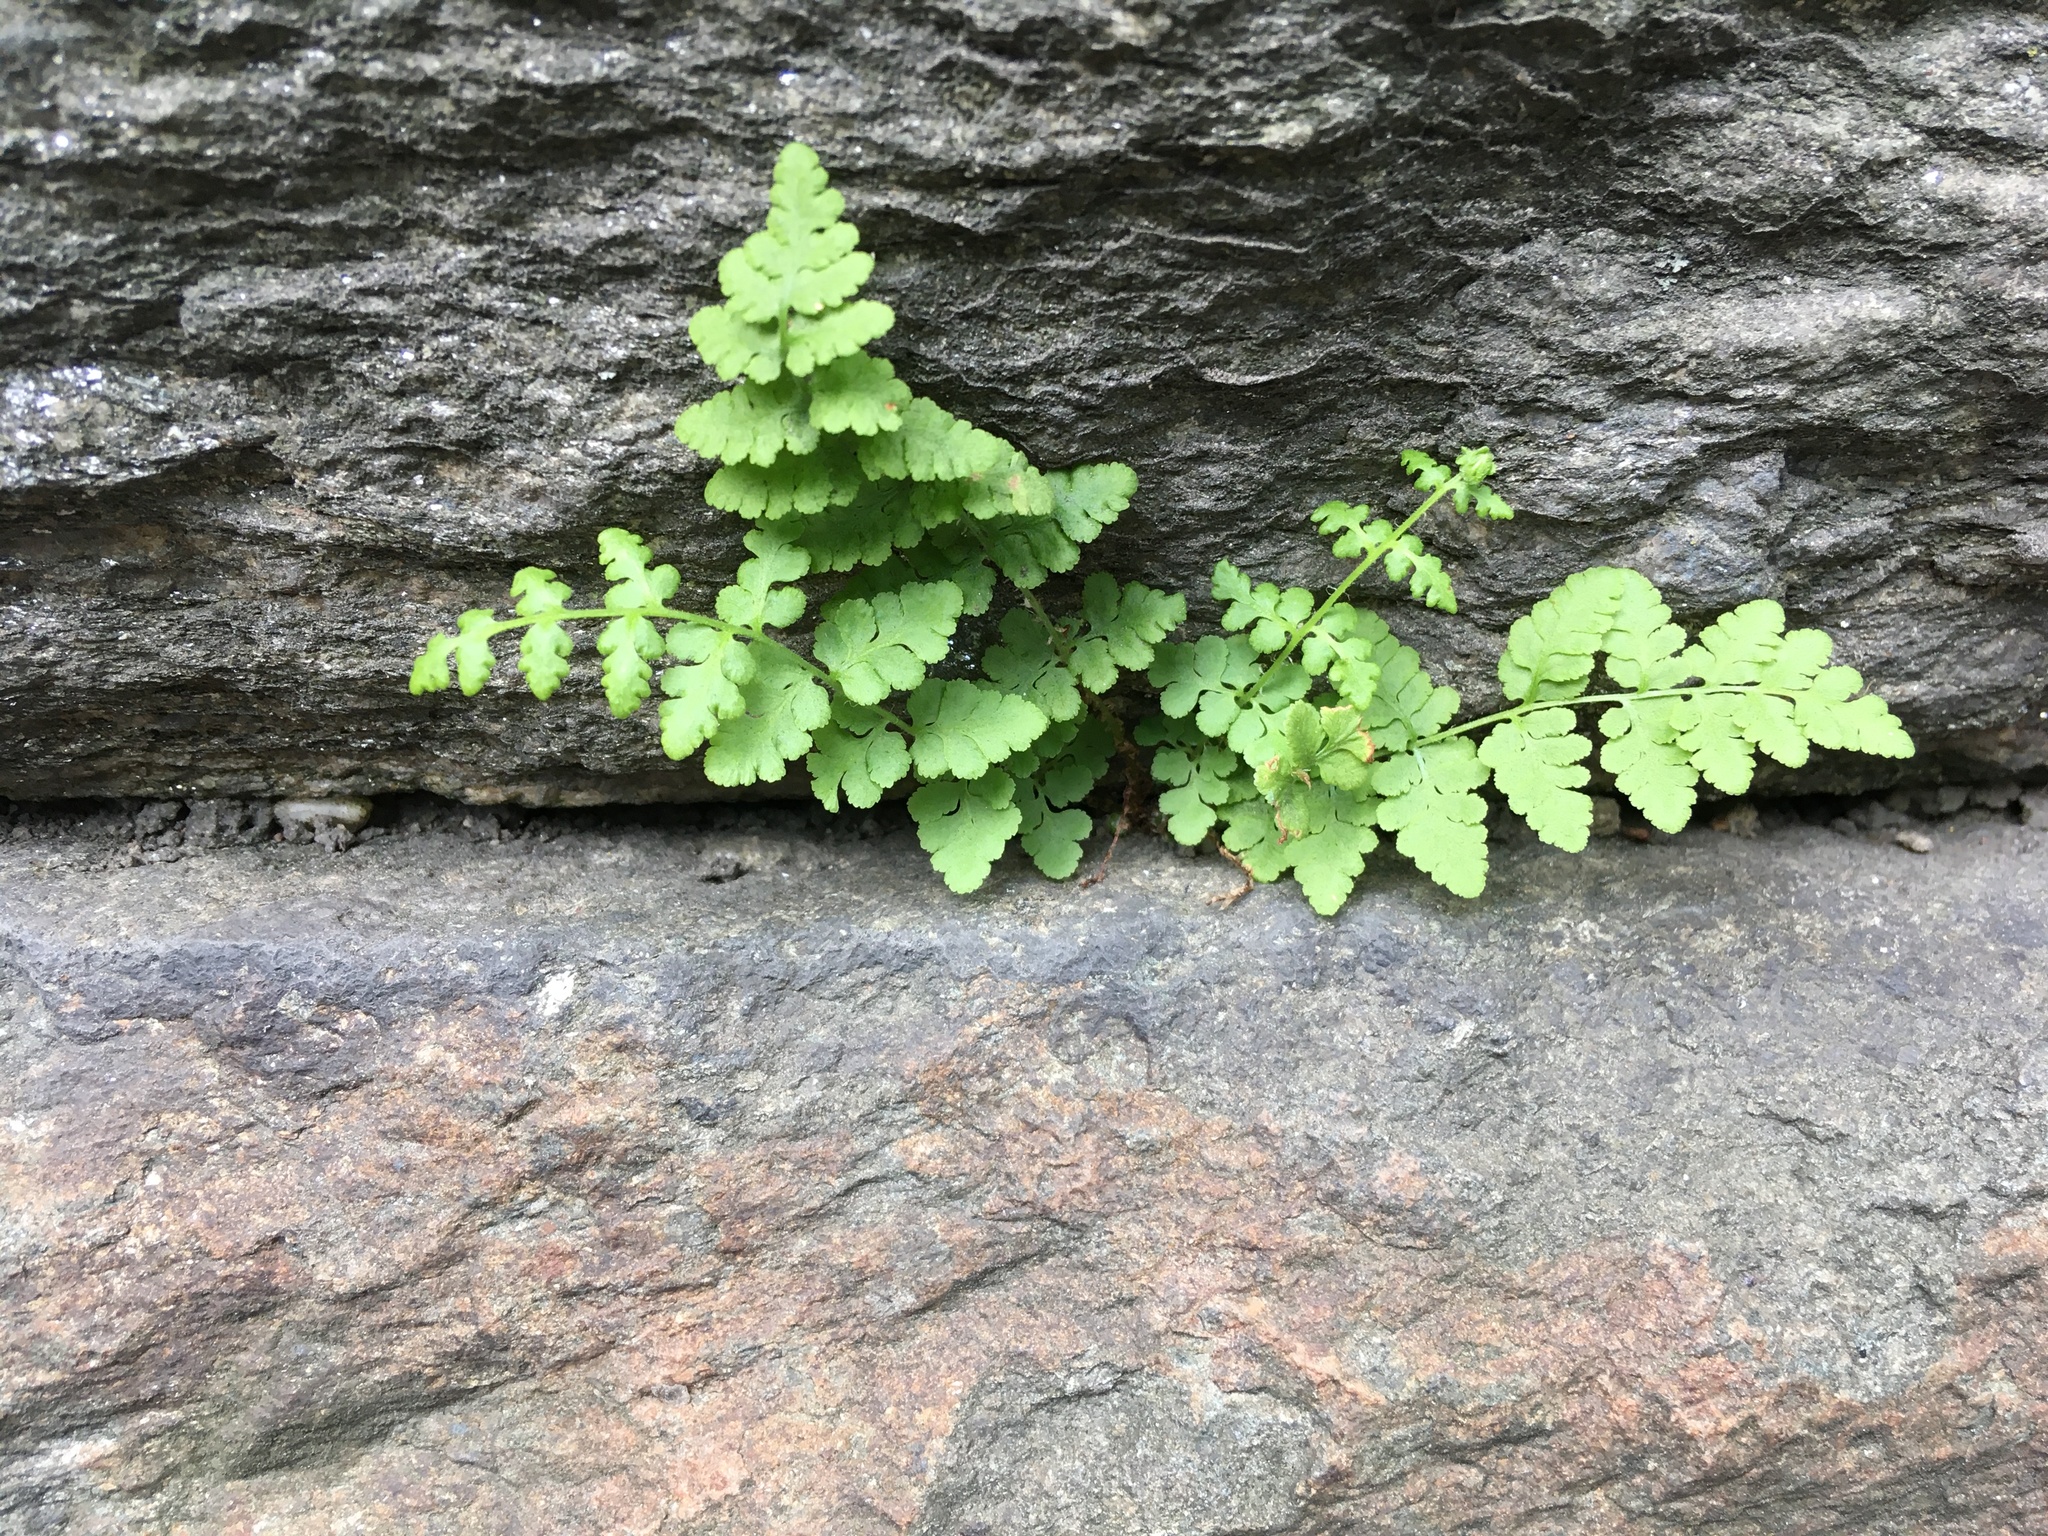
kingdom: Plantae
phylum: Tracheophyta
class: Polypodiopsida
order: Polypodiales
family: Woodsiaceae
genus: Physematium
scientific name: Physematium obtusum
